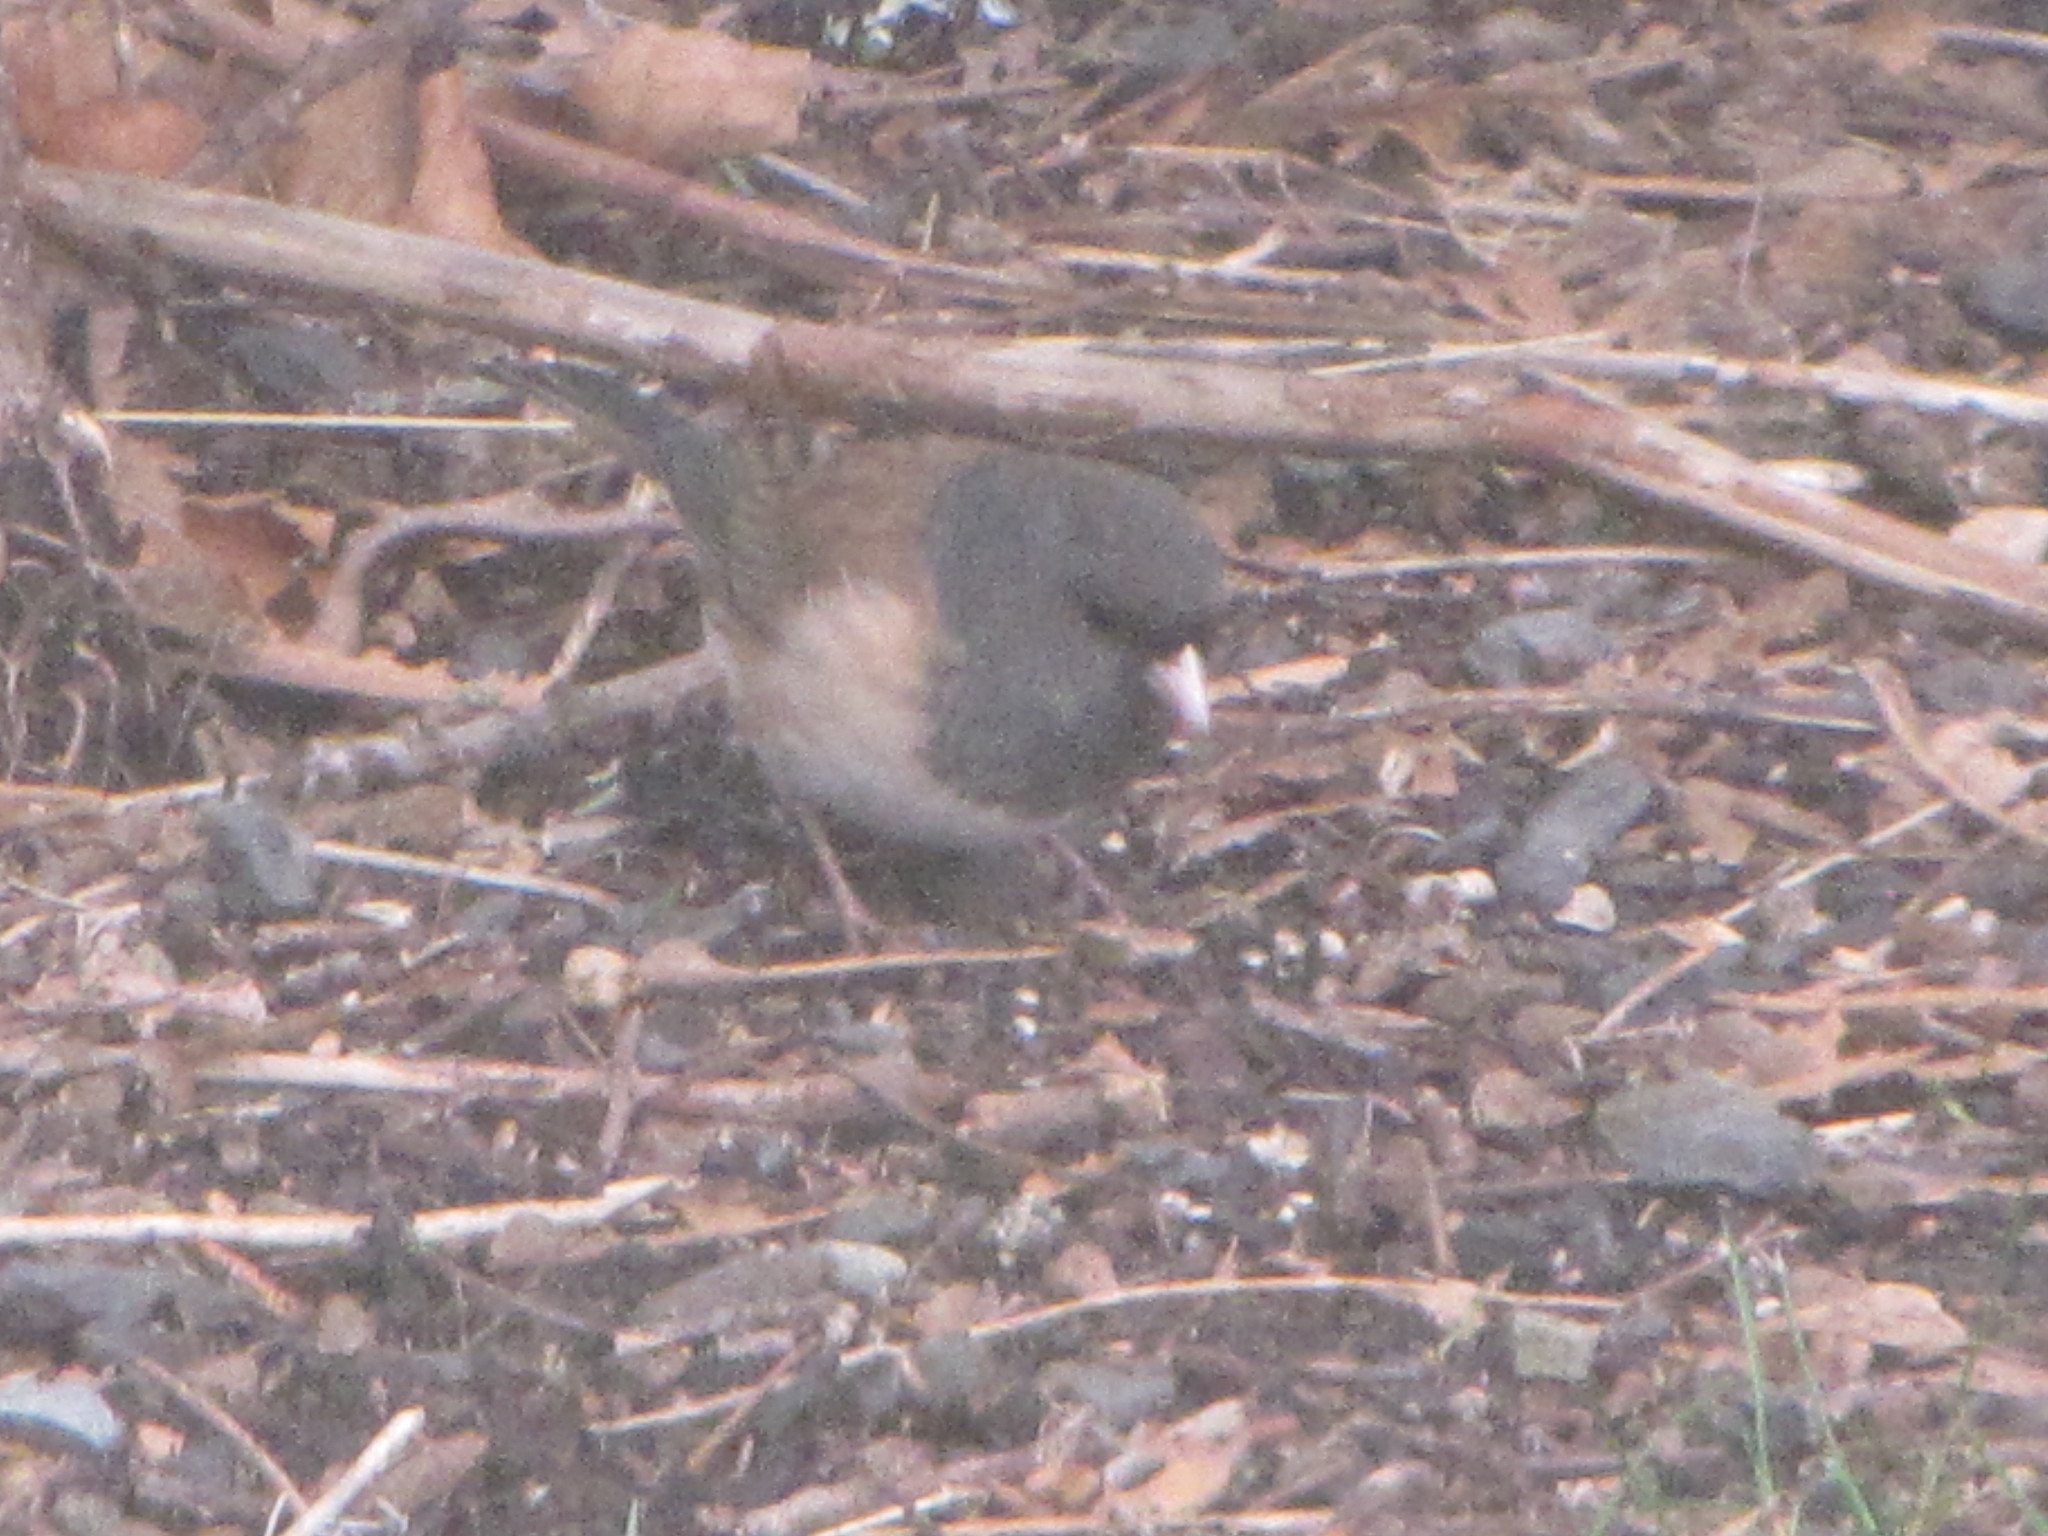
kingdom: Animalia
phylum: Chordata
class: Aves
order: Passeriformes
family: Passerellidae
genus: Junco
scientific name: Junco hyemalis
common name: Dark-eyed junco
